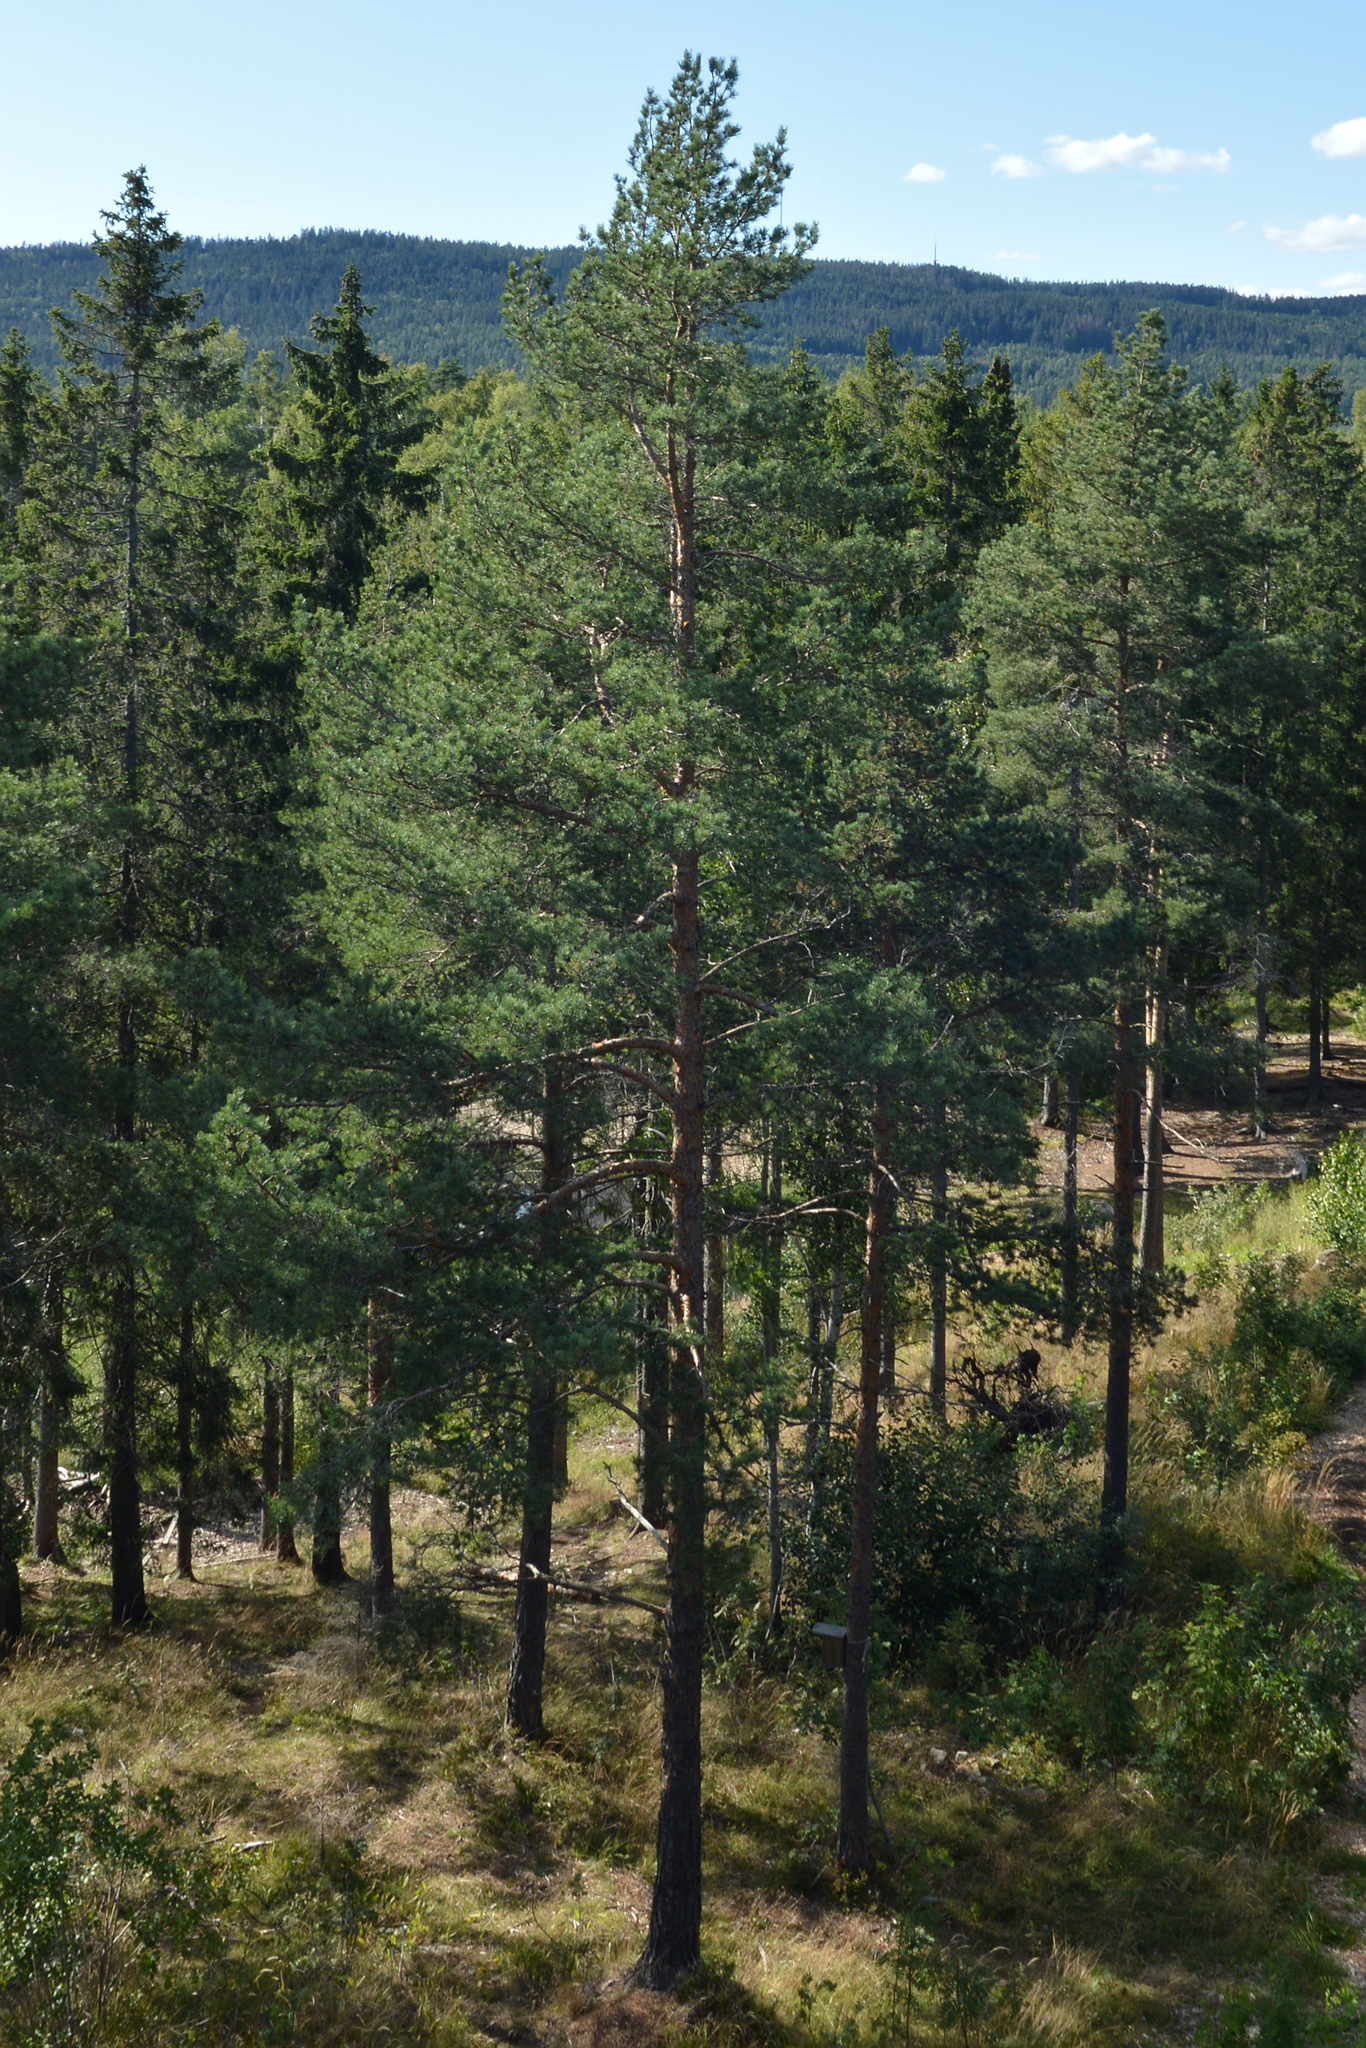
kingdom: Plantae
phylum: Tracheophyta
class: Pinopsida
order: Pinales
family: Pinaceae
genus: Pinus
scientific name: Pinus sylvestris
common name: Scots pine
